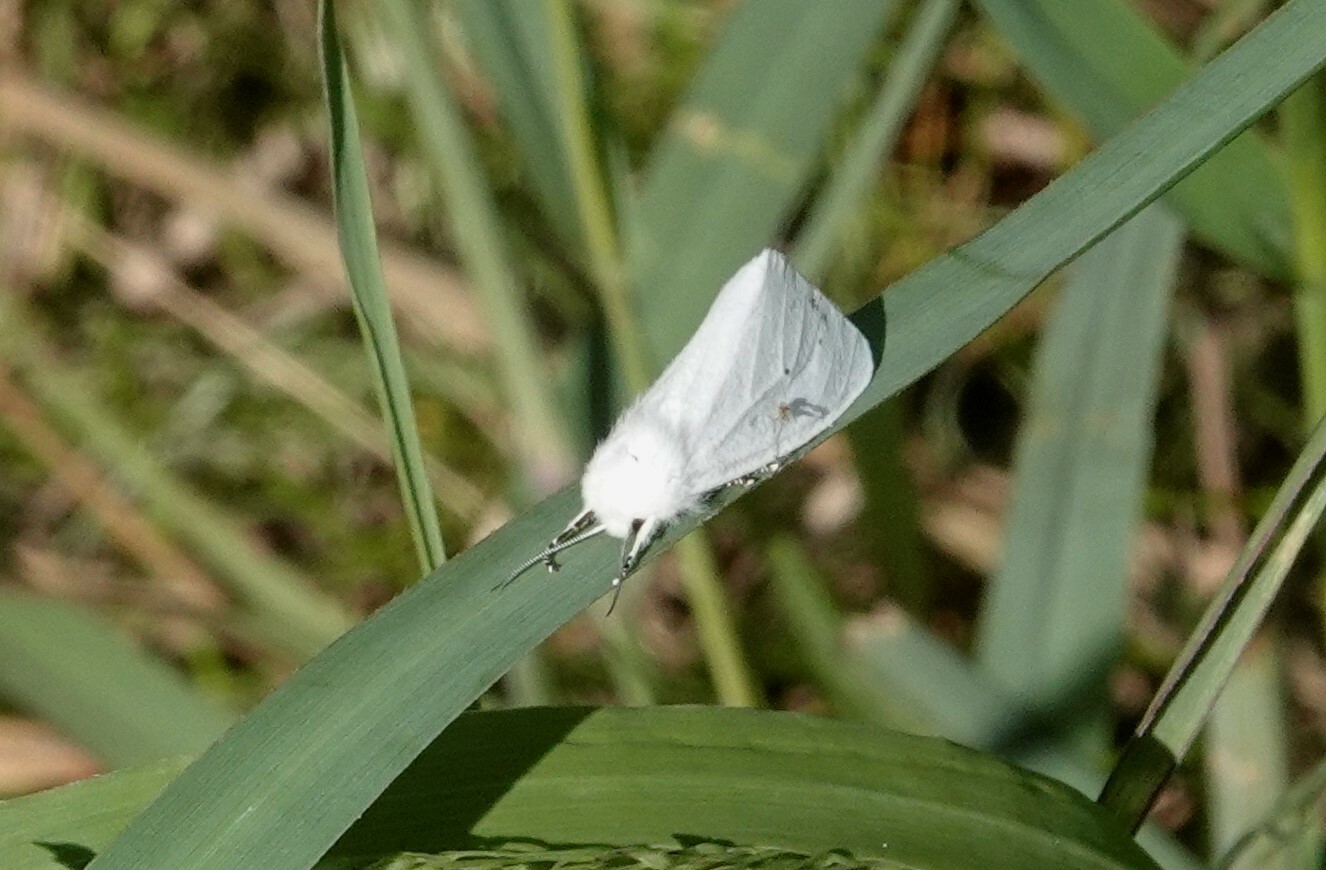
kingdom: Animalia
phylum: Arthropoda
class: Insecta
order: Lepidoptera
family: Erebidae
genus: Spilosoma
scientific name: Spilosoma virginica
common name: Virginia tiger moth
